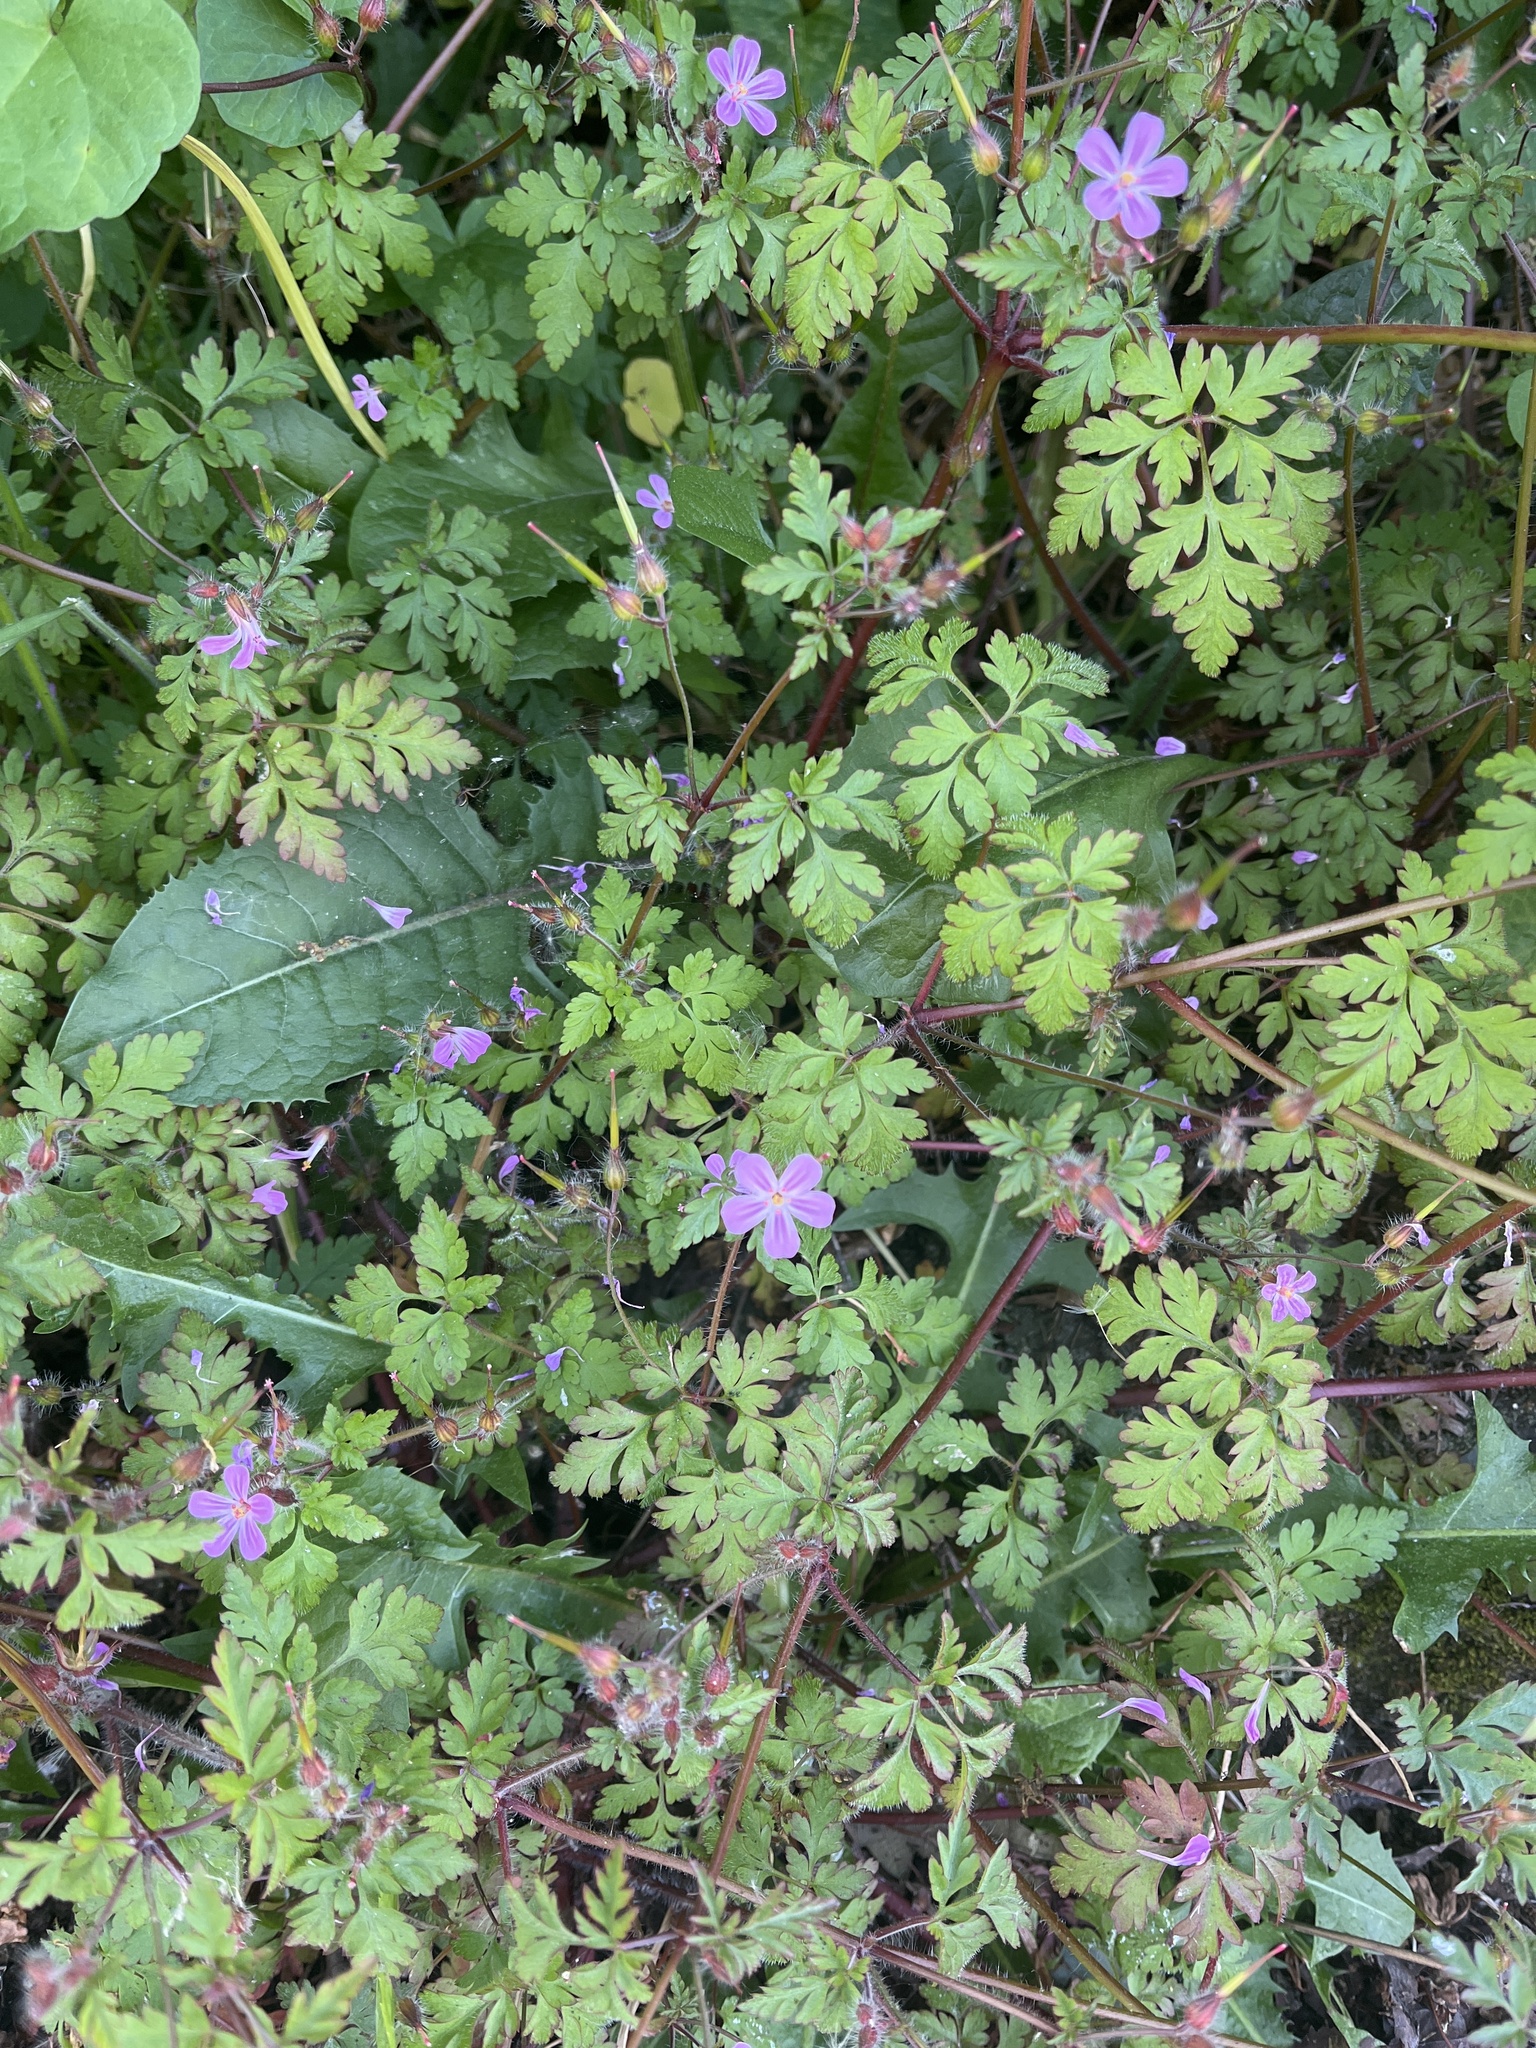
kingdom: Plantae
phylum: Tracheophyta
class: Magnoliopsida
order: Geraniales
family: Geraniaceae
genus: Geranium
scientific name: Geranium robertianum
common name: Herb-robert
